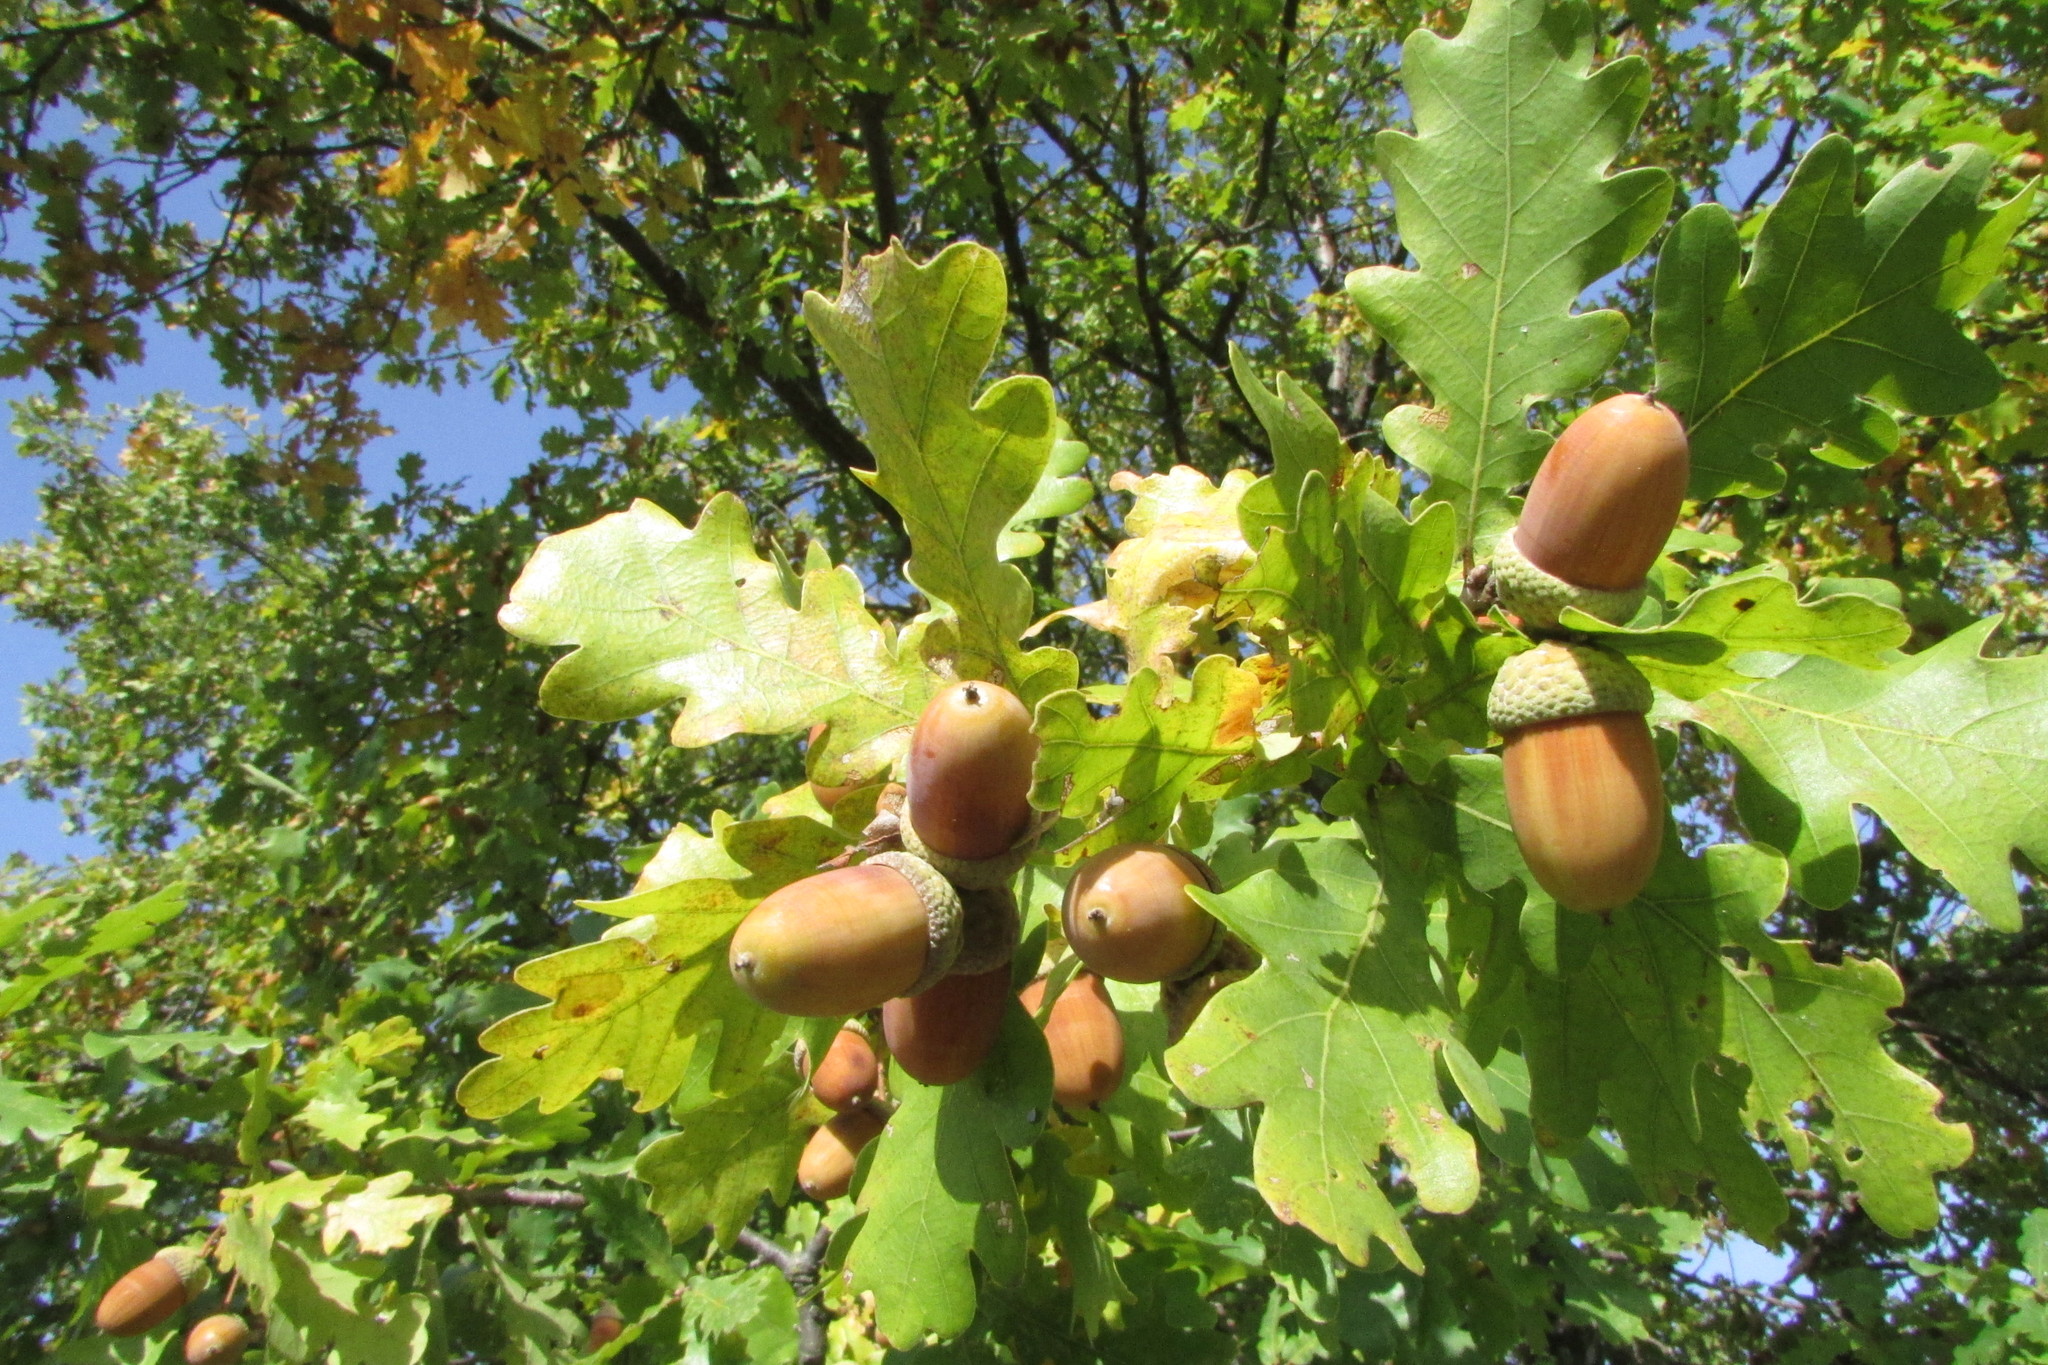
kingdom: Plantae
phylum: Tracheophyta
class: Magnoliopsida
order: Fagales
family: Fagaceae
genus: Quercus
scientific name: Quercus robur
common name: Pedunculate oak
